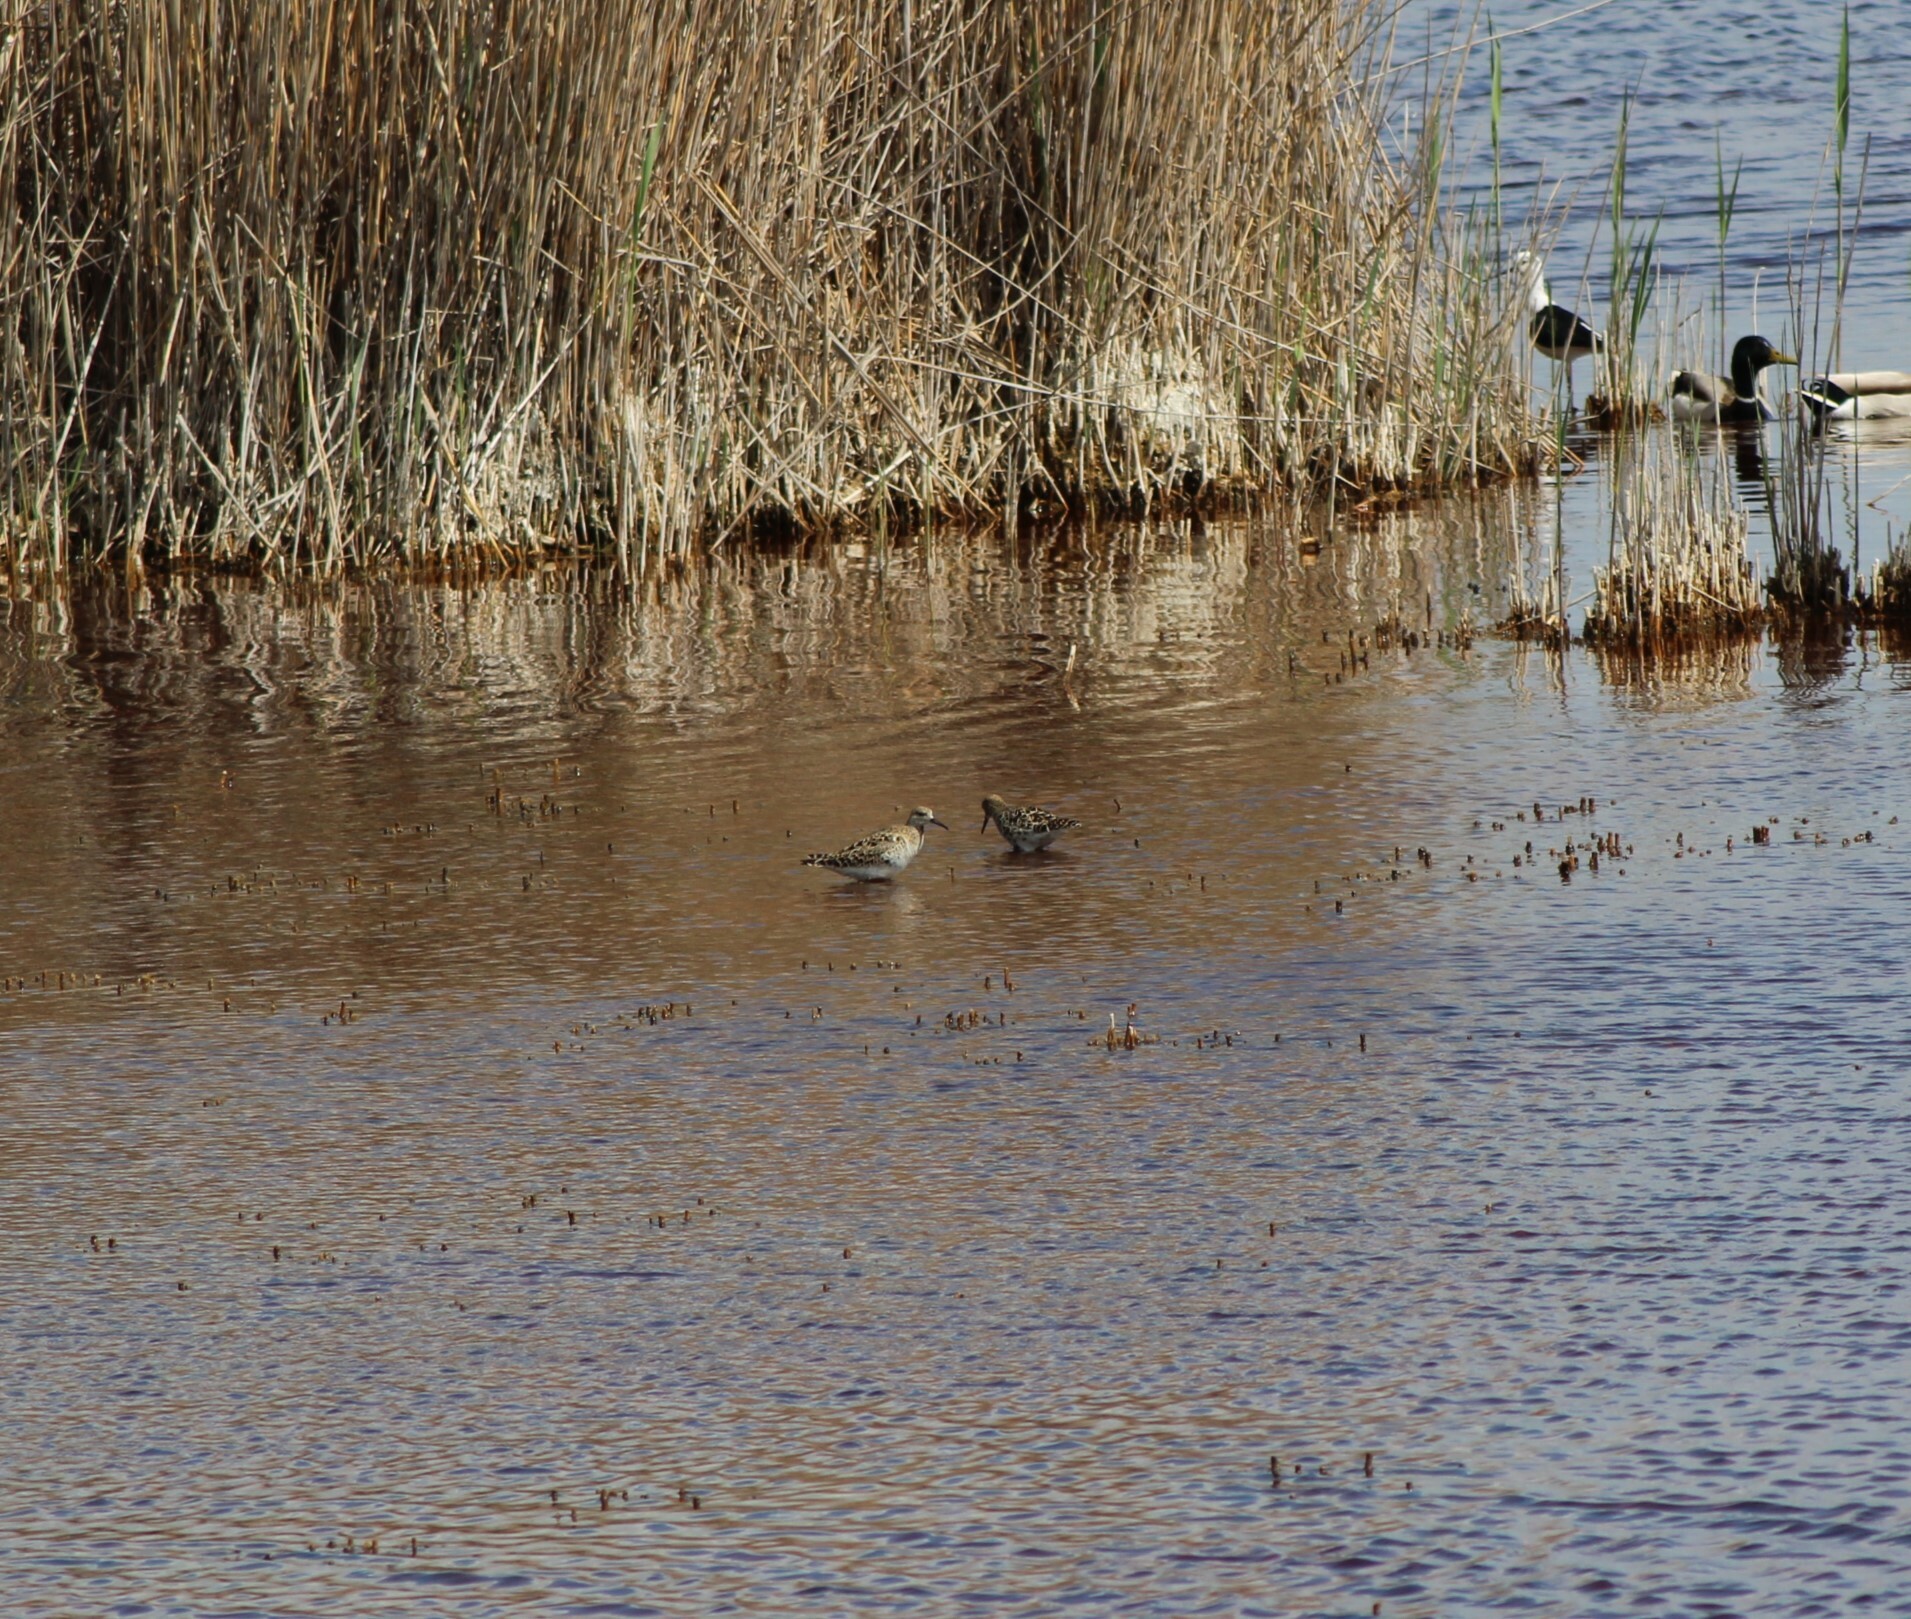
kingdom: Animalia
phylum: Chordata
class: Aves
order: Charadriiformes
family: Scolopacidae
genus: Calidris
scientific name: Calidris pugnax
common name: Ruff
